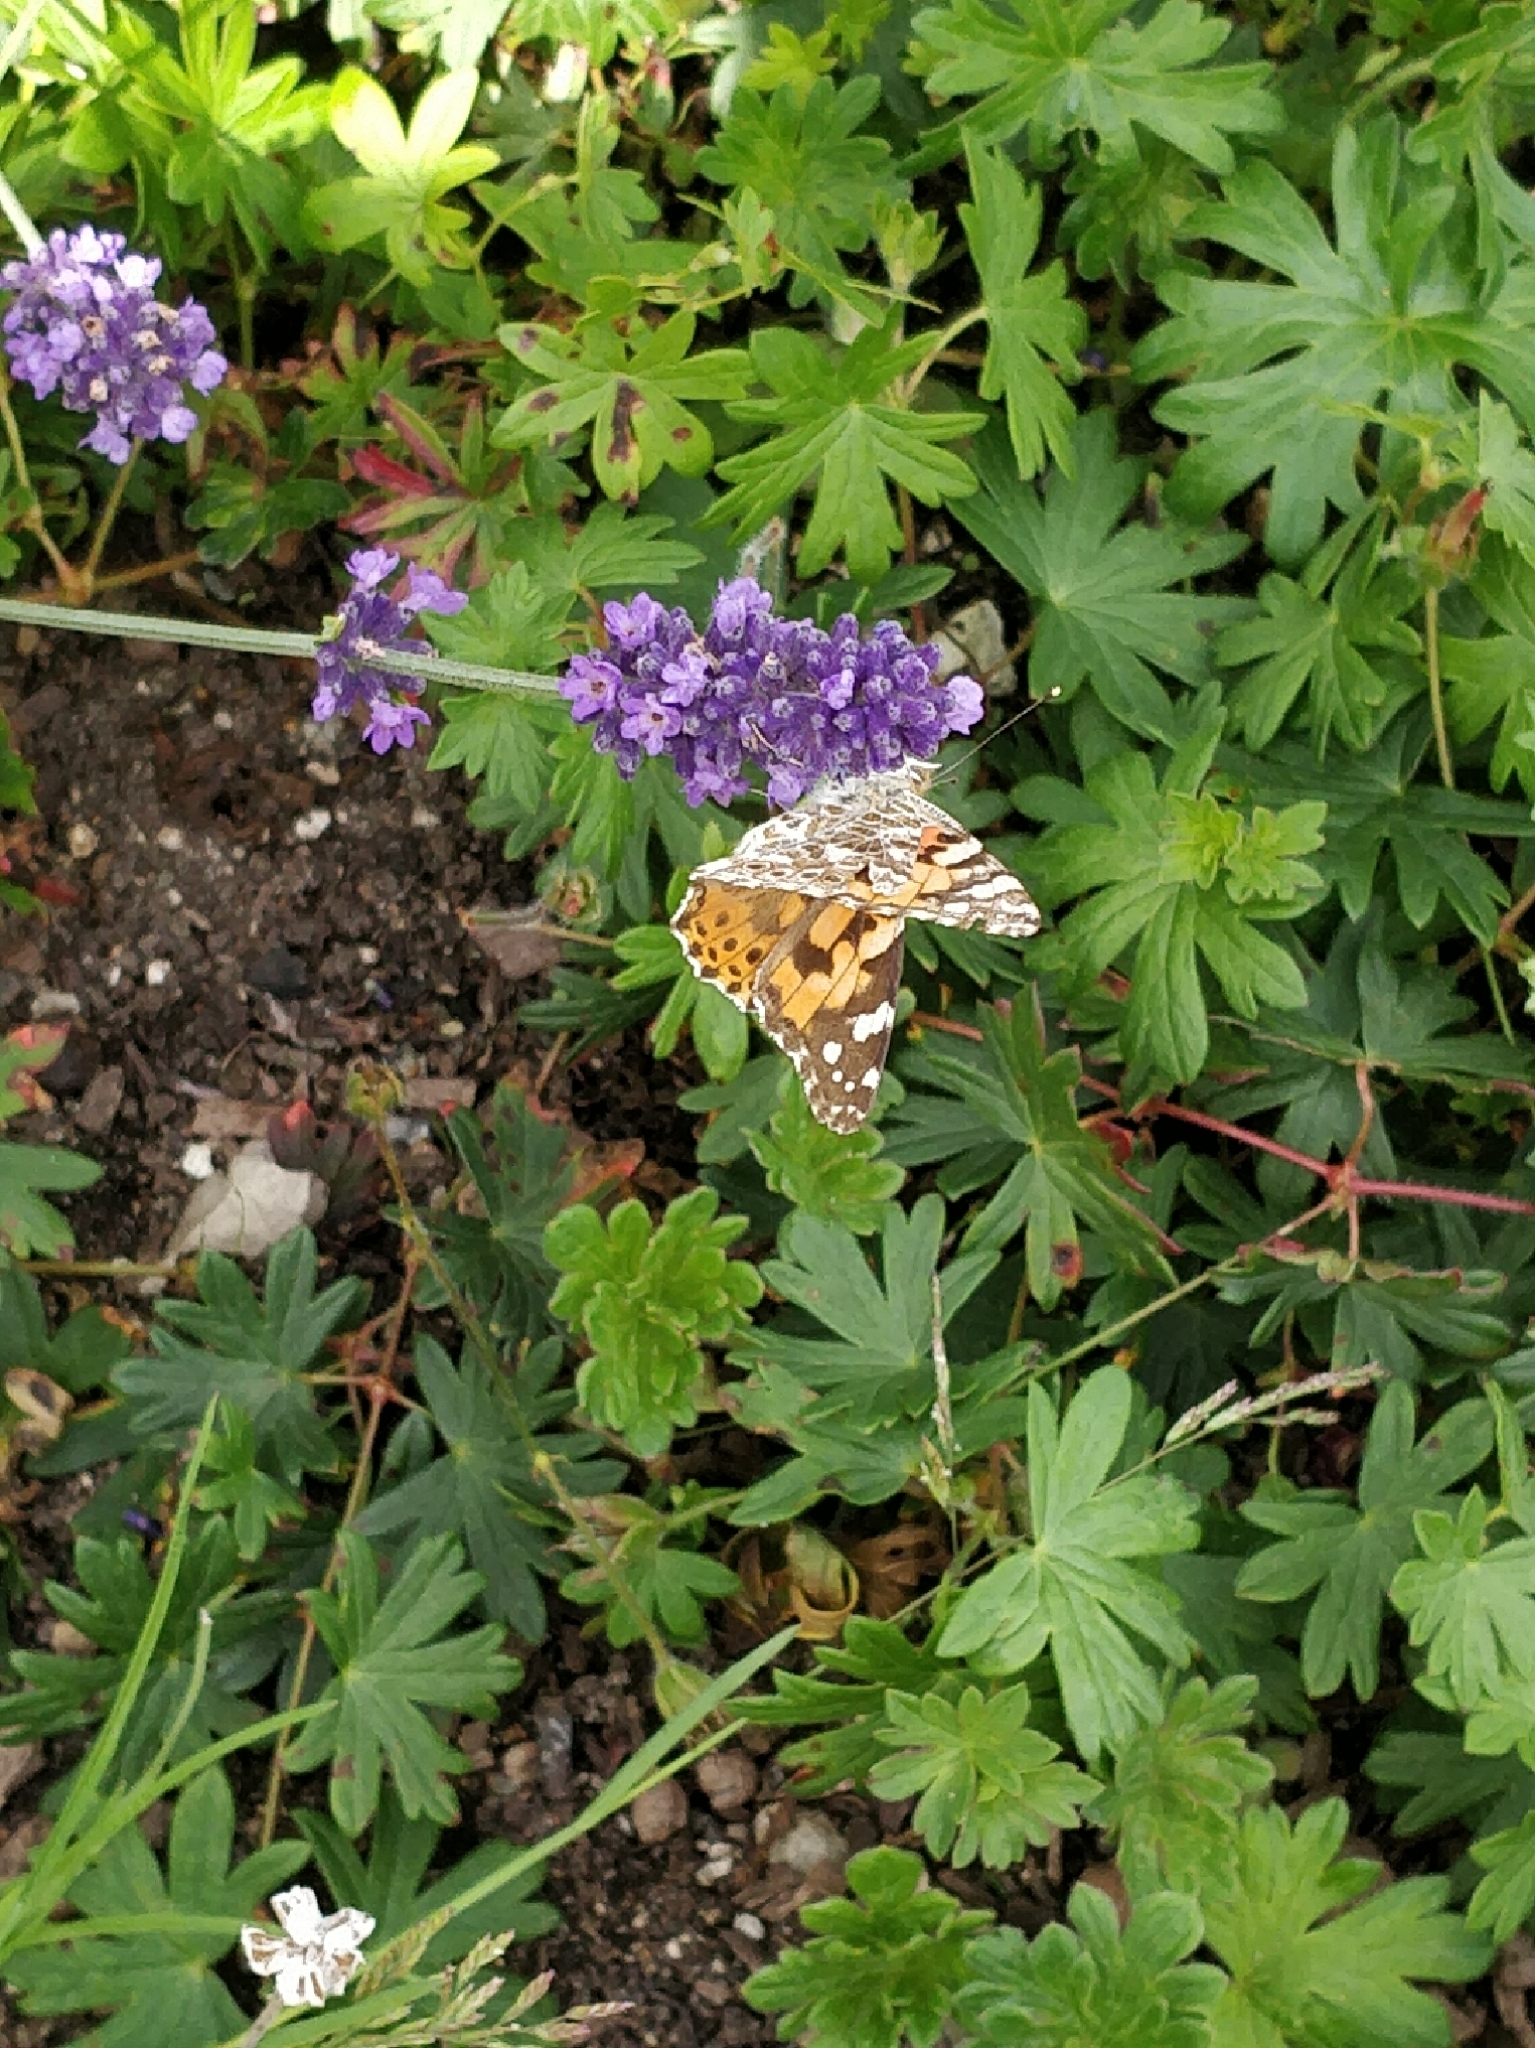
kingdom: Animalia
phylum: Arthropoda
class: Insecta
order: Lepidoptera
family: Nymphalidae
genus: Vanessa
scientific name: Vanessa cardui
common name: Painted lady
